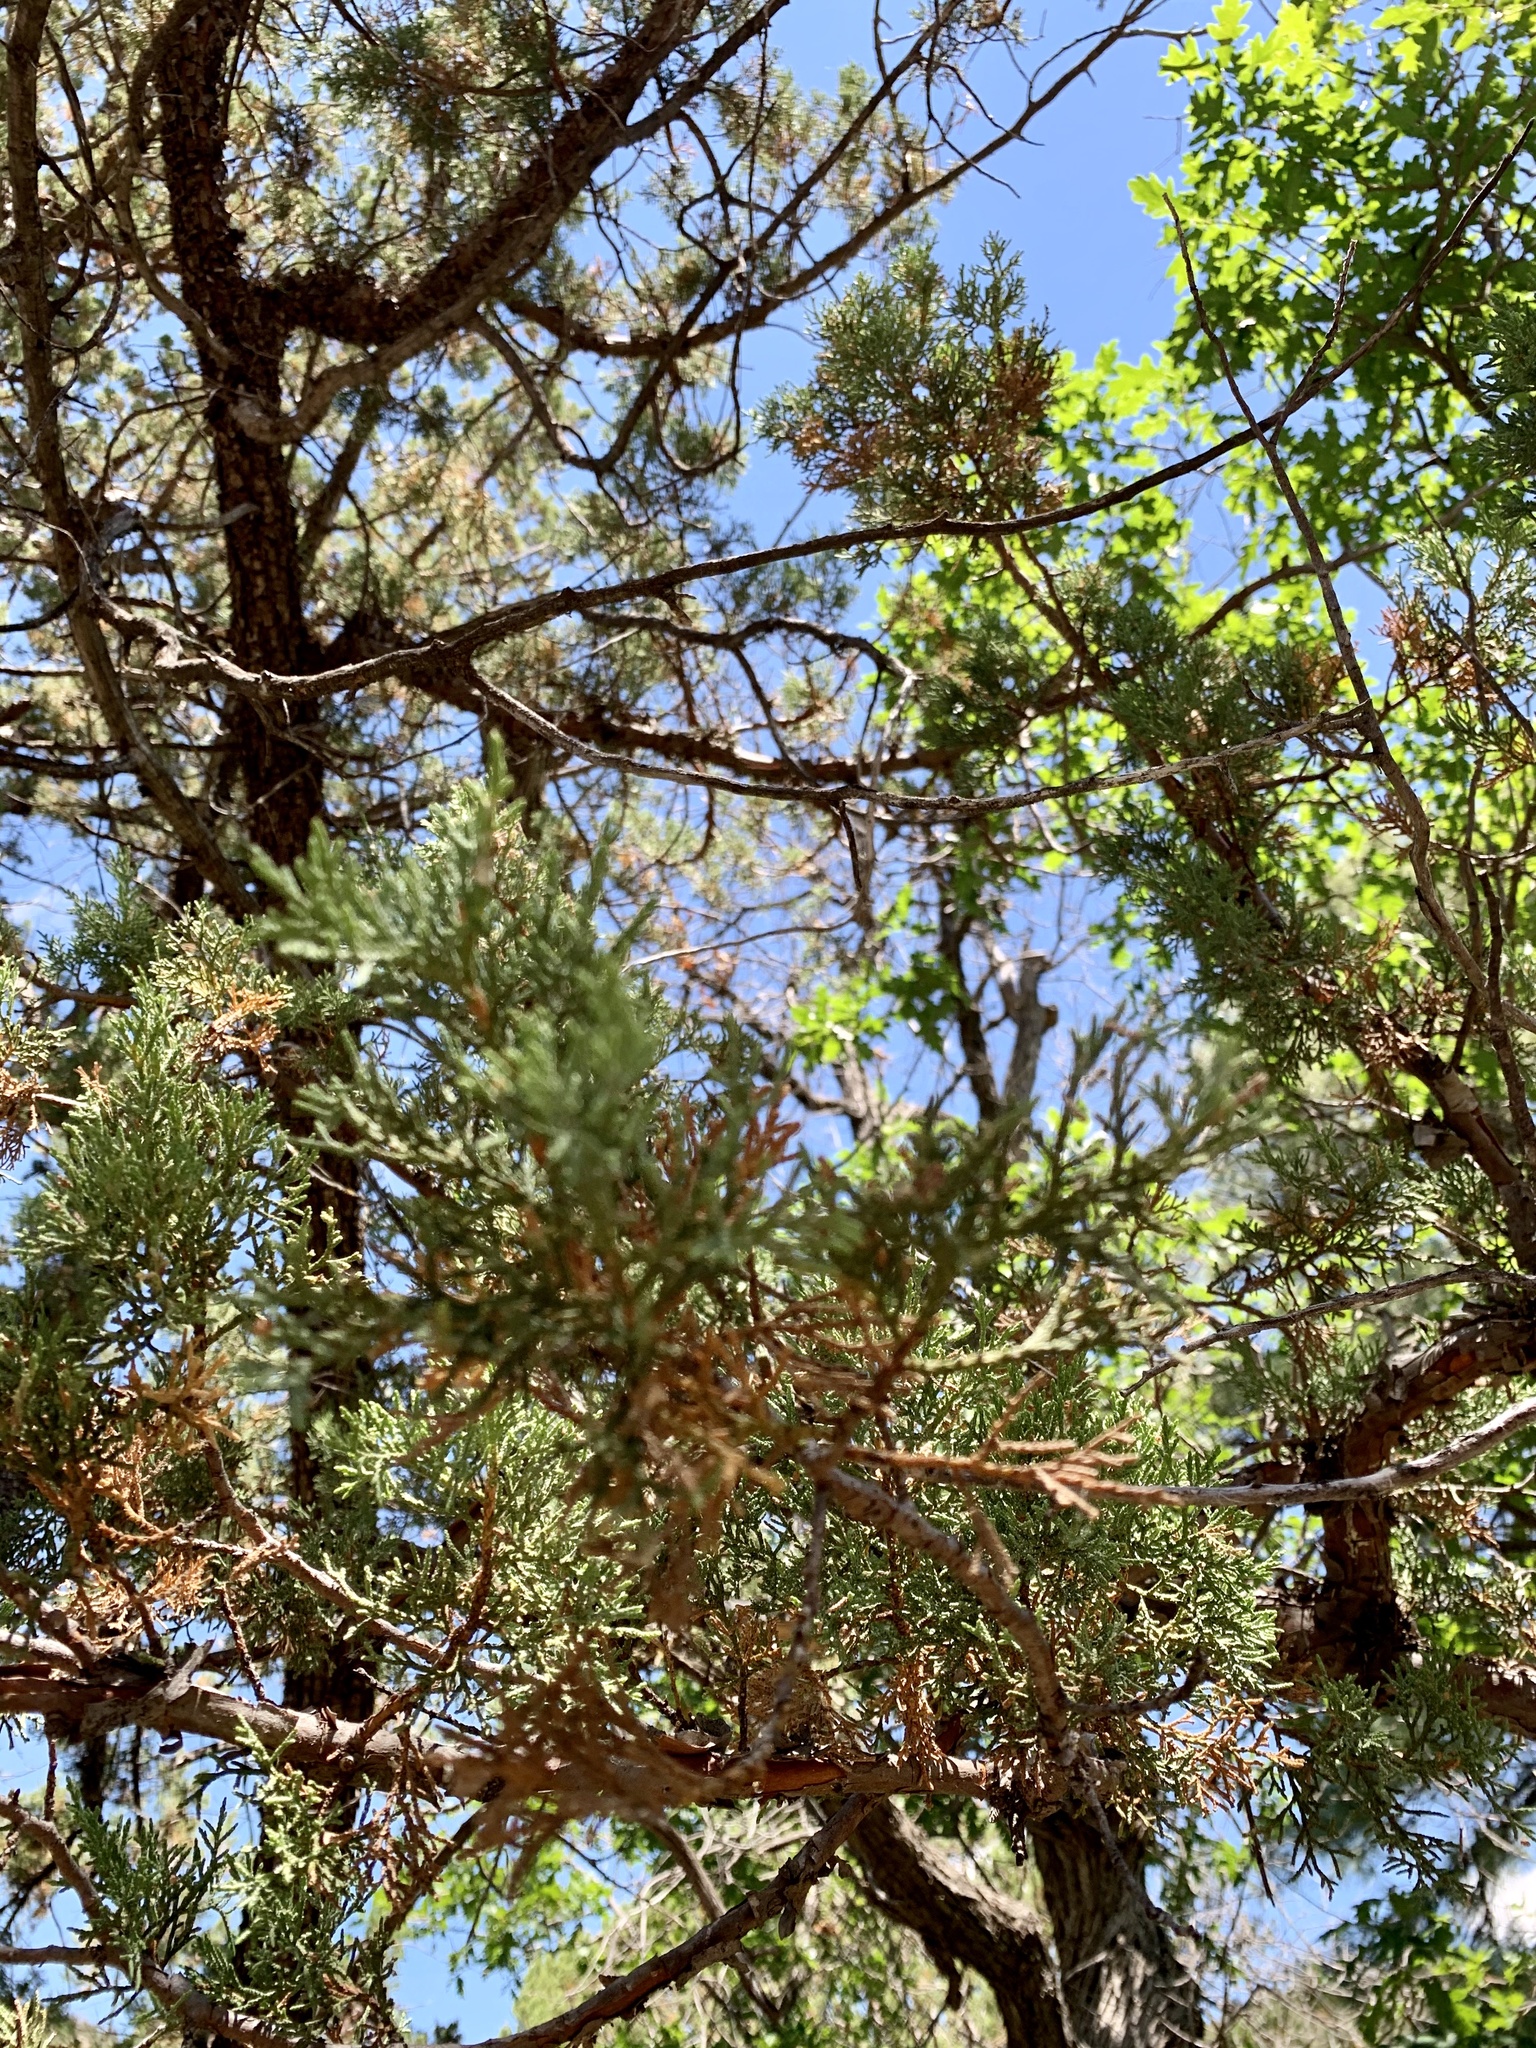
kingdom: Plantae
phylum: Tracheophyta
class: Pinopsida
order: Pinales
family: Cupressaceae
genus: Juniperus
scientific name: Juniperus deppeana
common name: Alligator juniper
